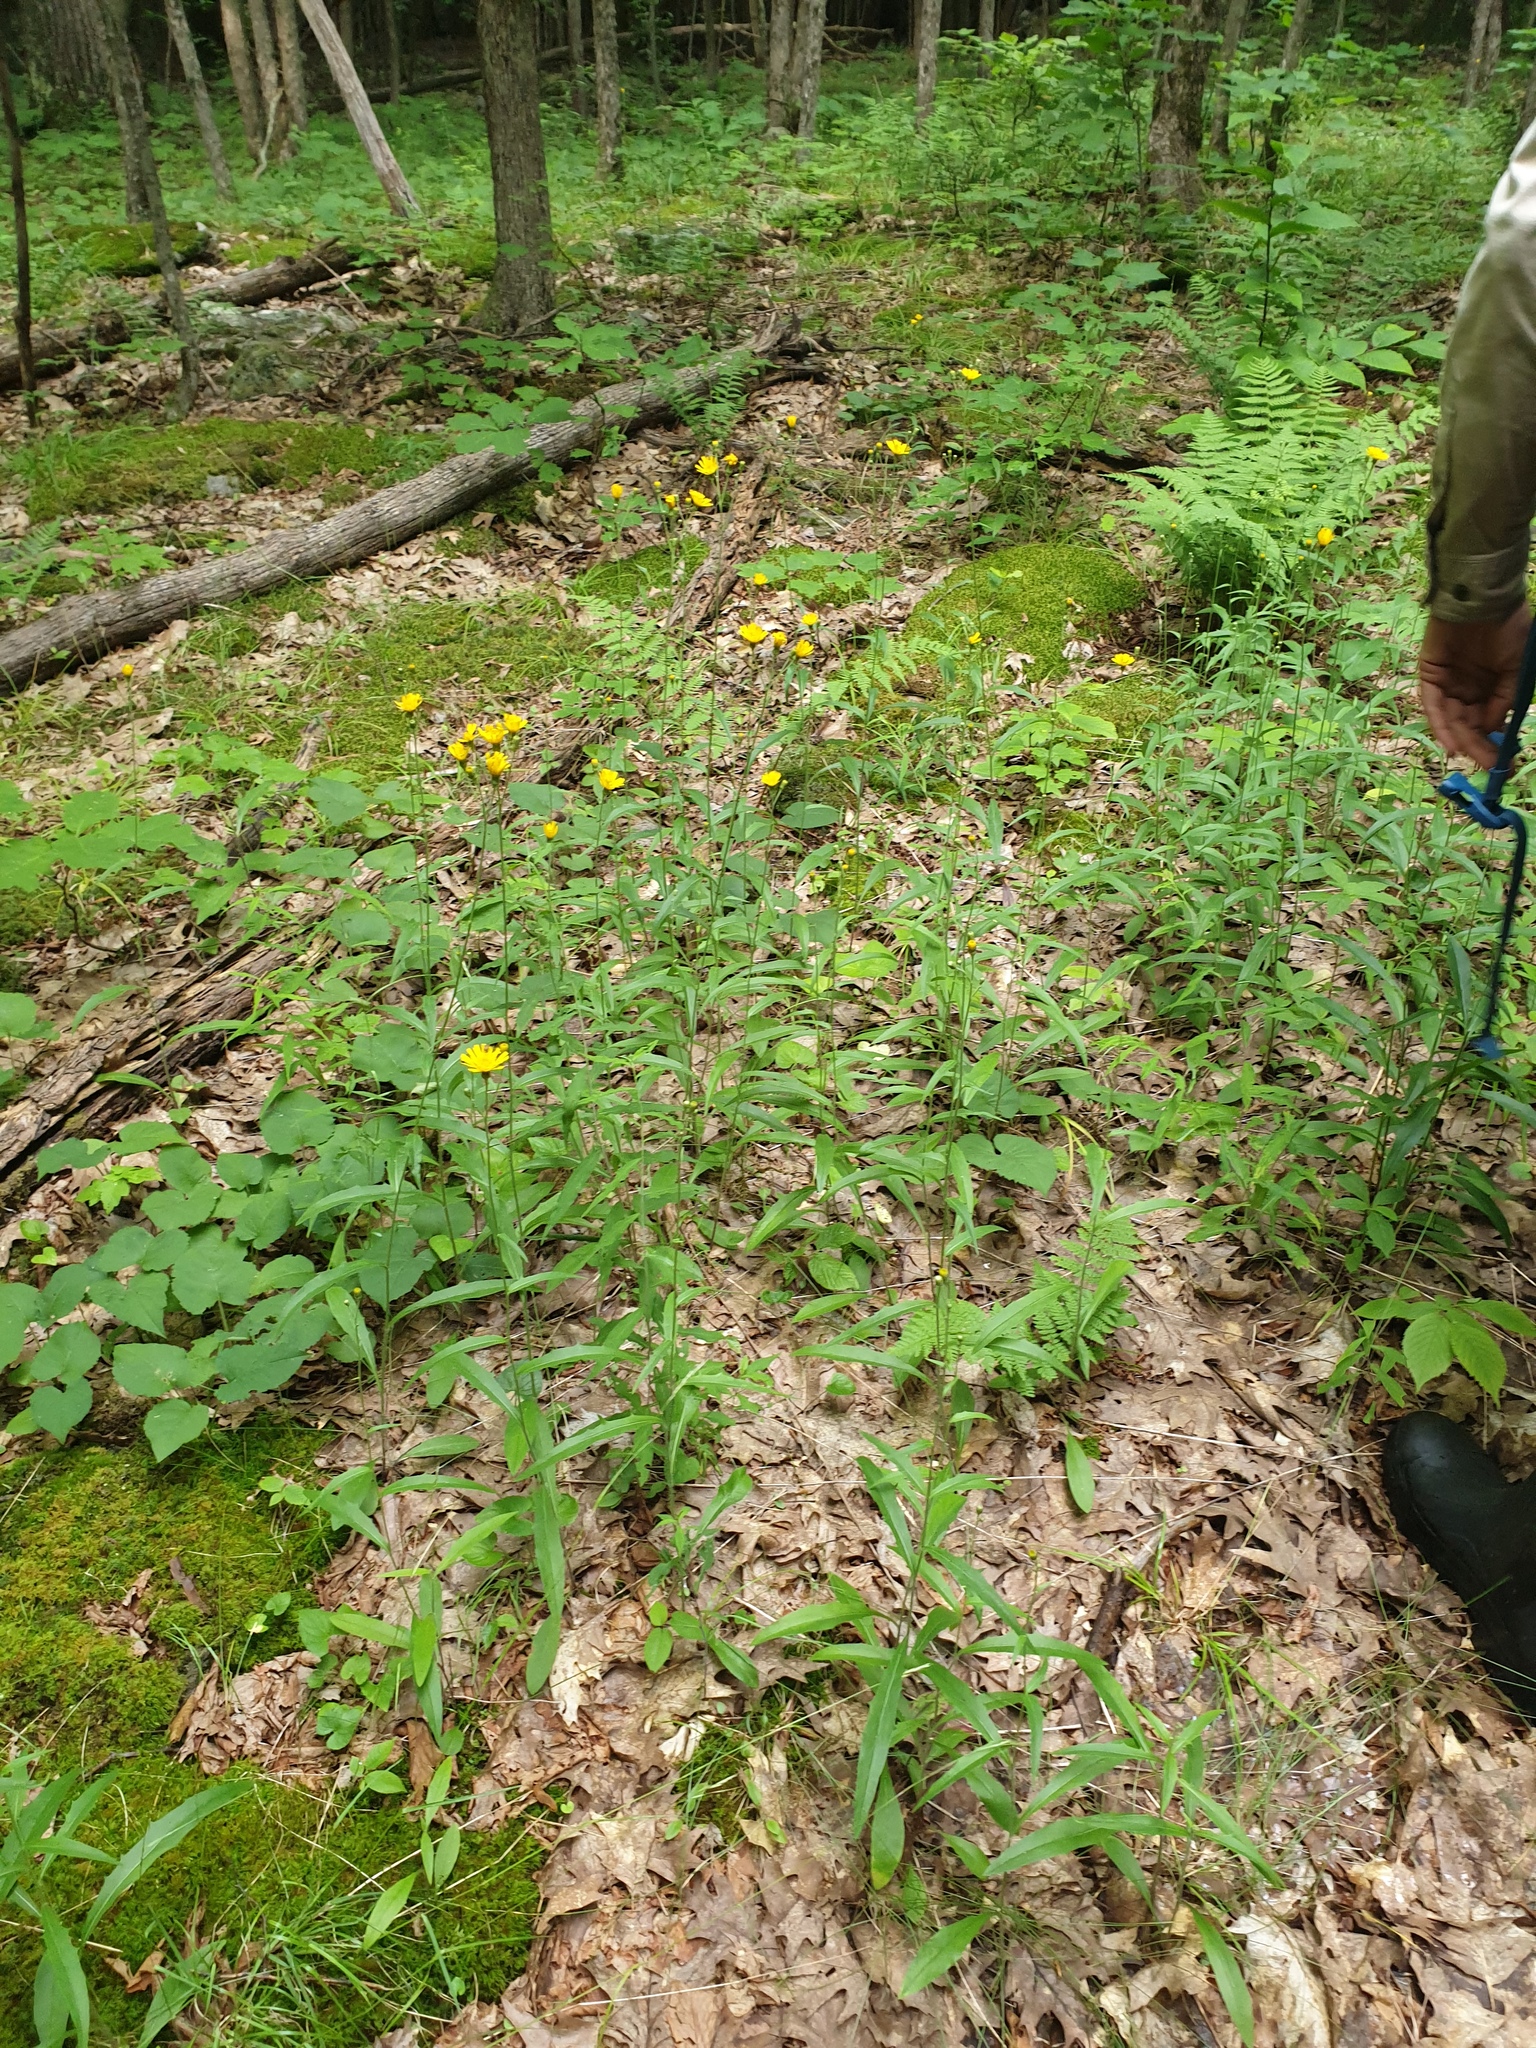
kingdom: Plantae
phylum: Tracheophyta
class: Magnoliopsida
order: Asterales
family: Asteraceae
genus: Hieracium
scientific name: Hieracium tridentatum
